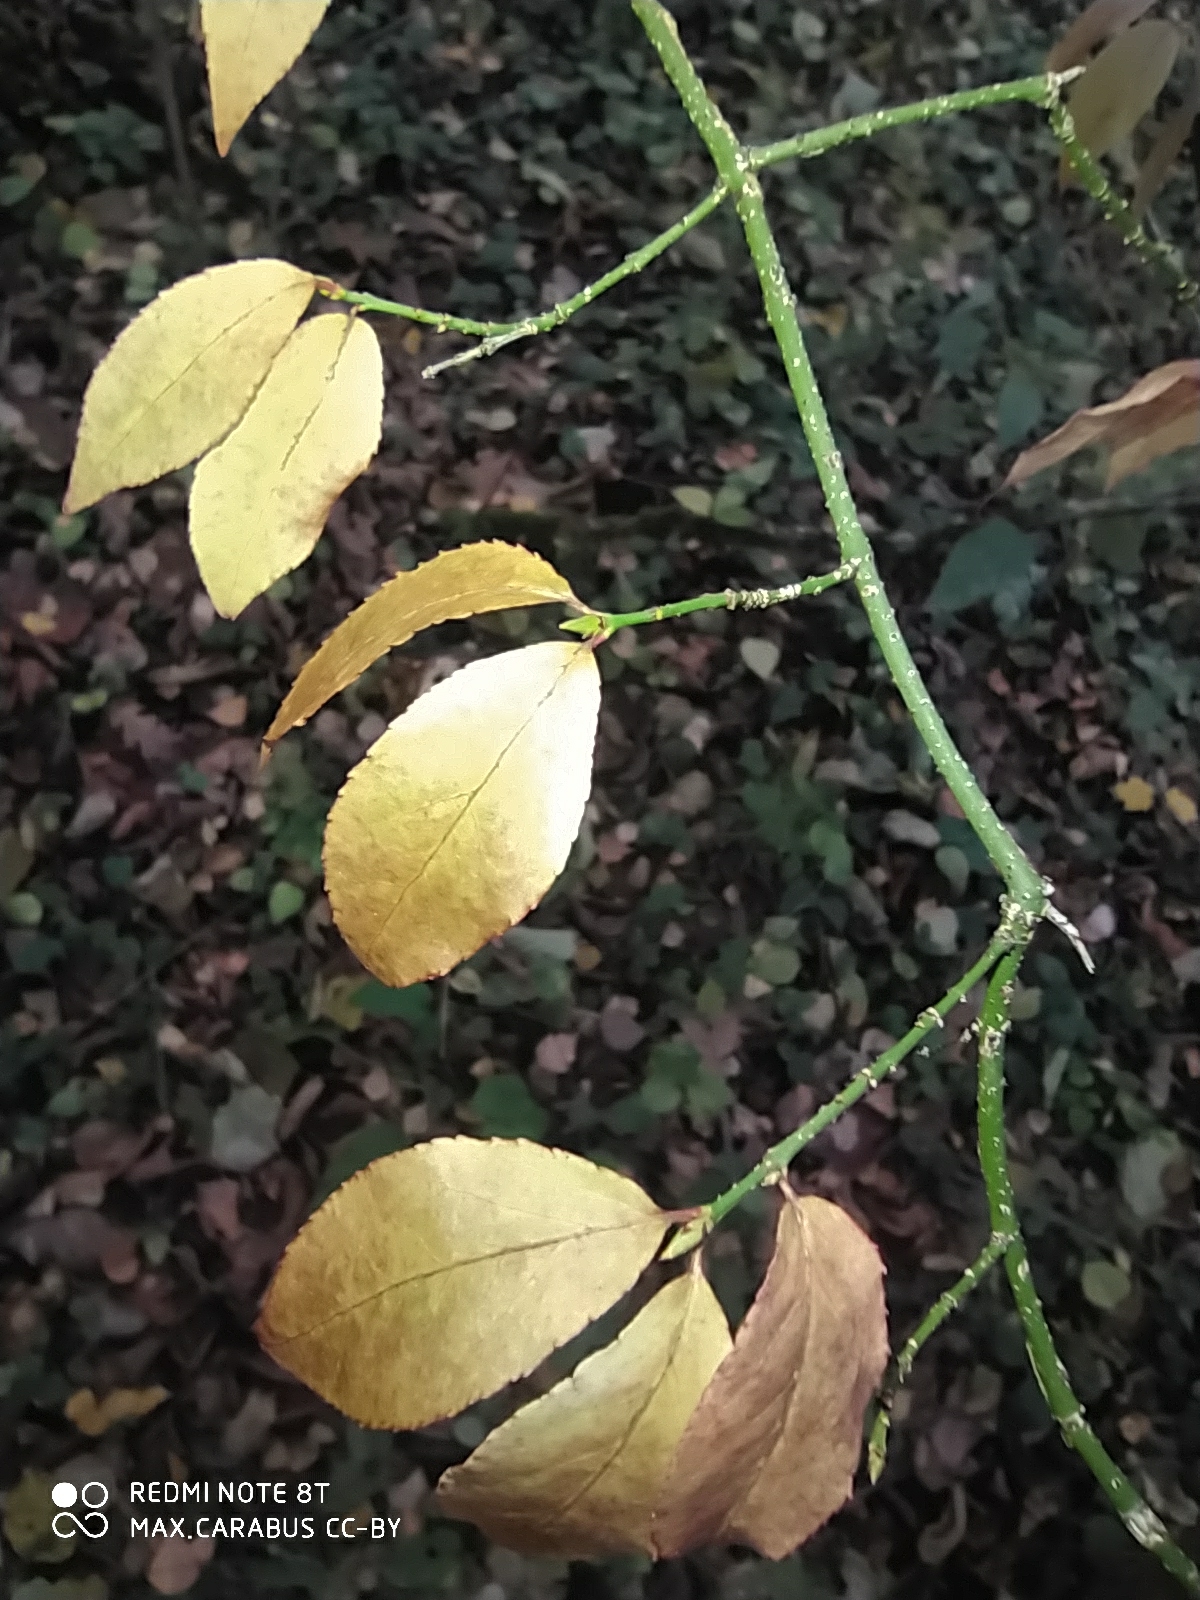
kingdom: Plantae
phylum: Tracheophyta
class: Magnoliopsida
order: Celastrales
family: Celastraceae
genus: Euonymus
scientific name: Euonymus verrucosus
